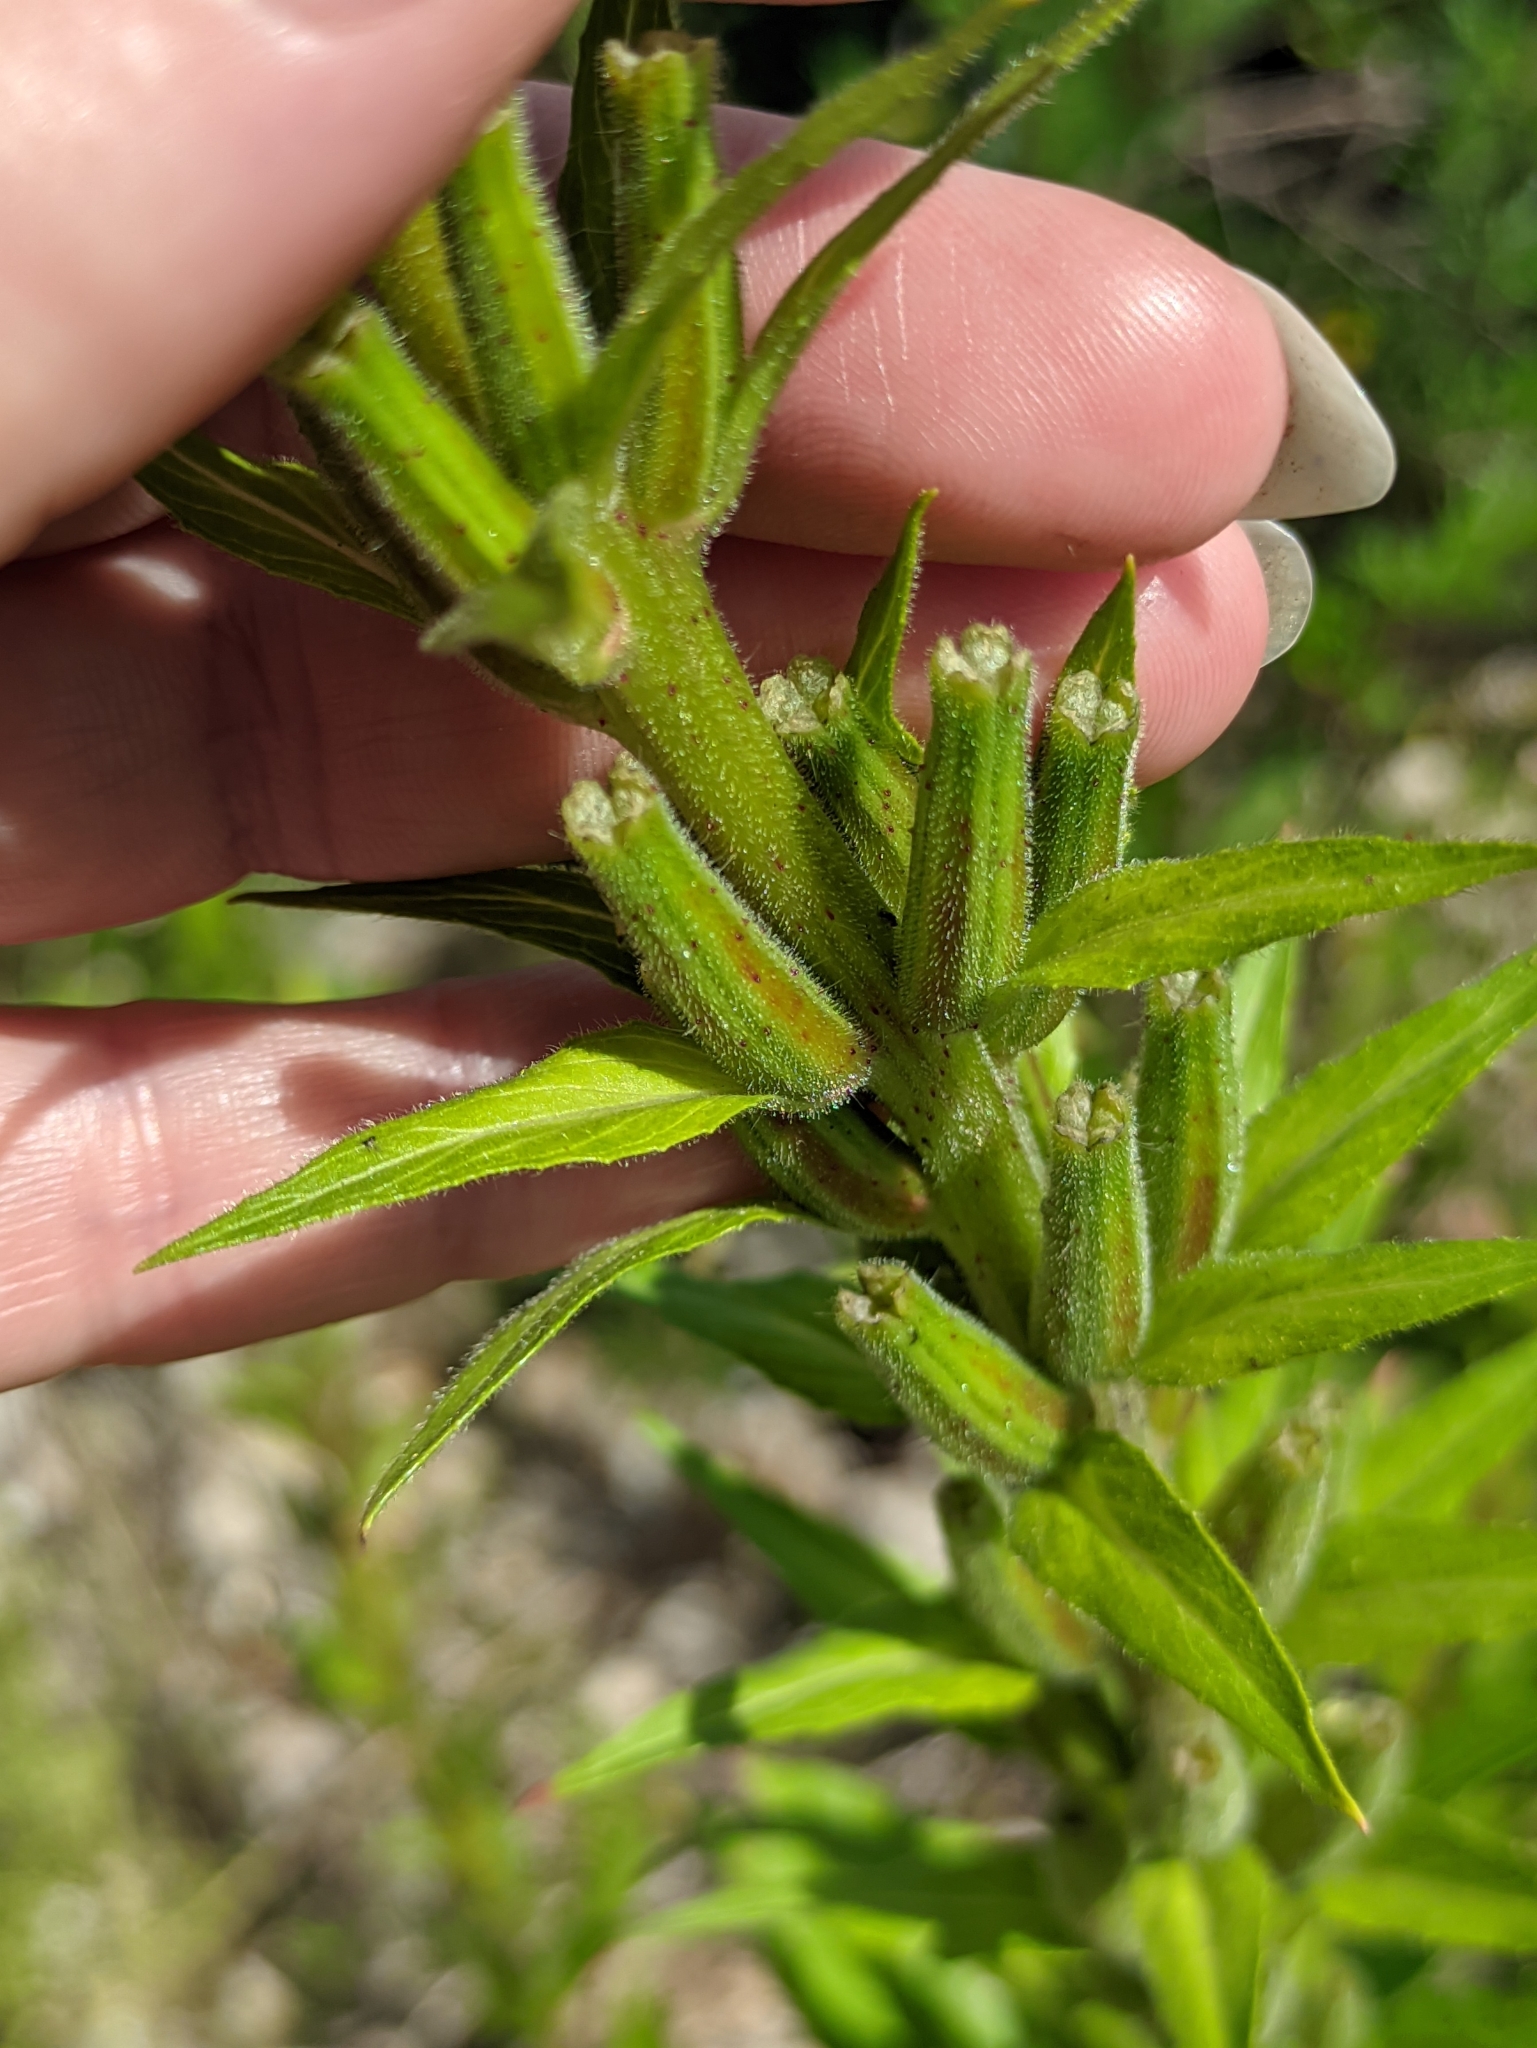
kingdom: Plantae
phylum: Tracheophyta
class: Magnoliopsida
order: Myrtales
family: Onagraceae
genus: Oenothera
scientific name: Oenothera rubricaulis
